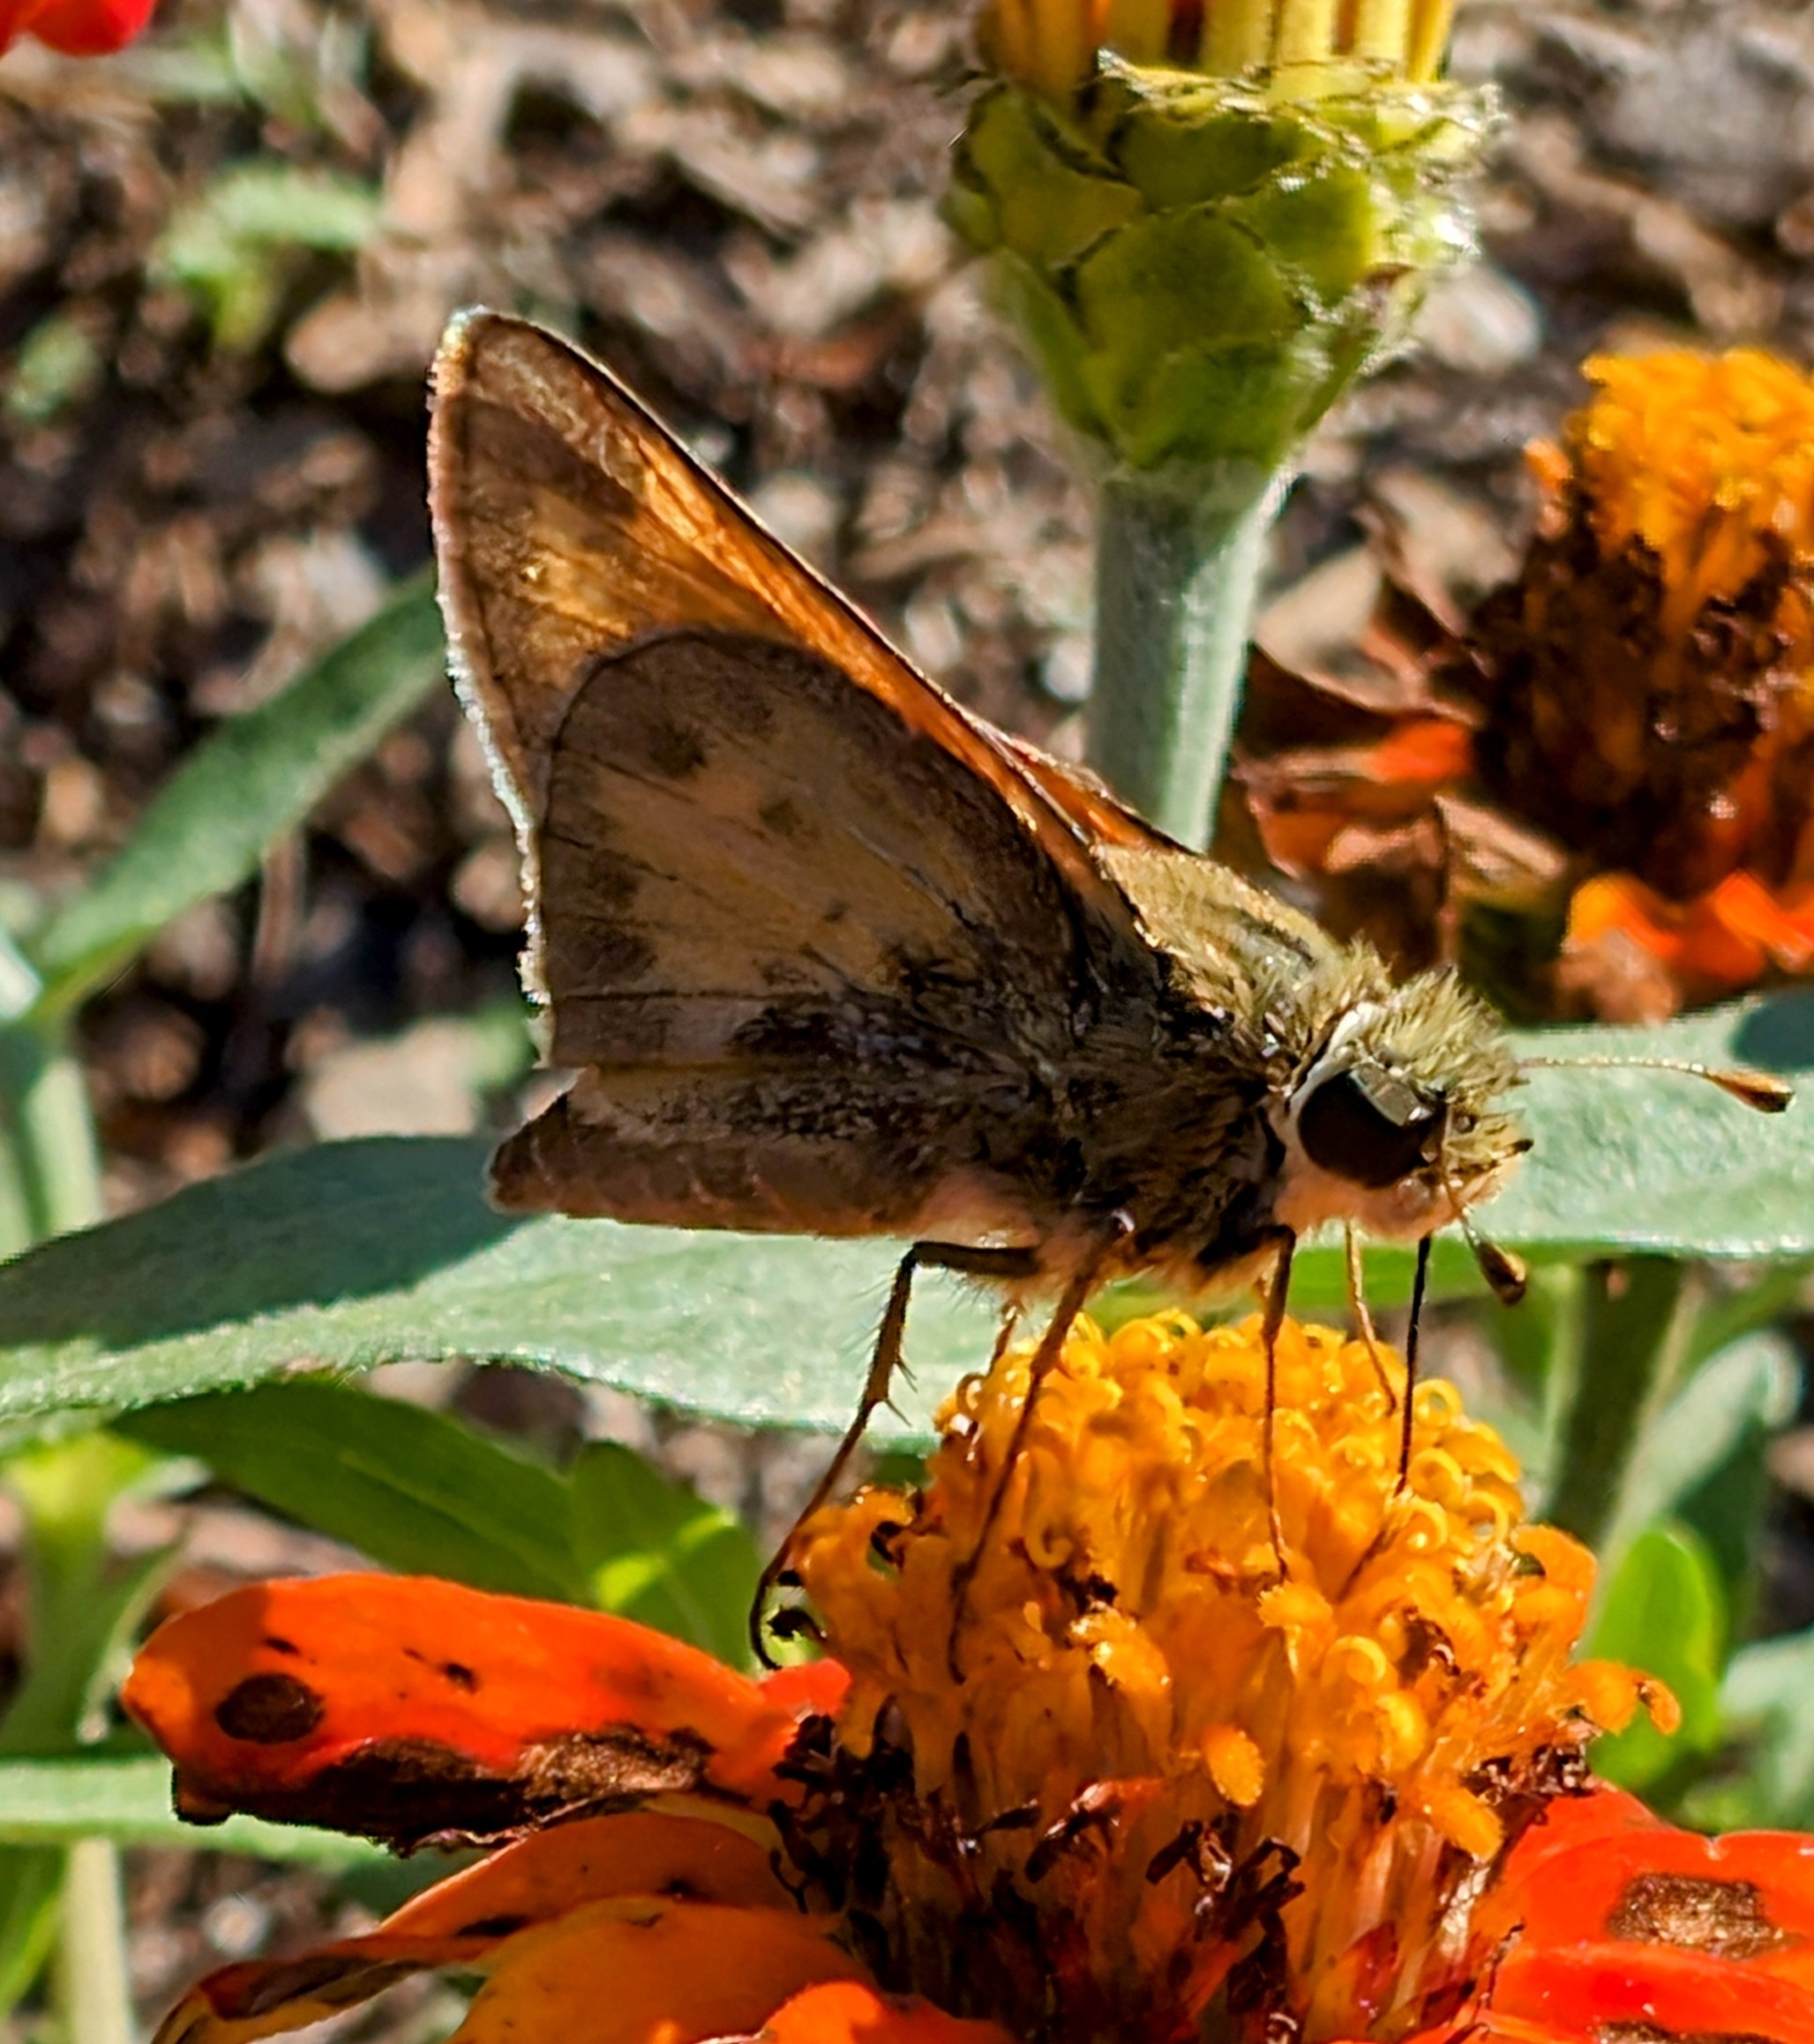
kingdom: Animalia
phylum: Arthropoda
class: Insecta
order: Lepidoptera
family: Hesperiidae
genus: Atalopedes
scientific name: Atalopedes
